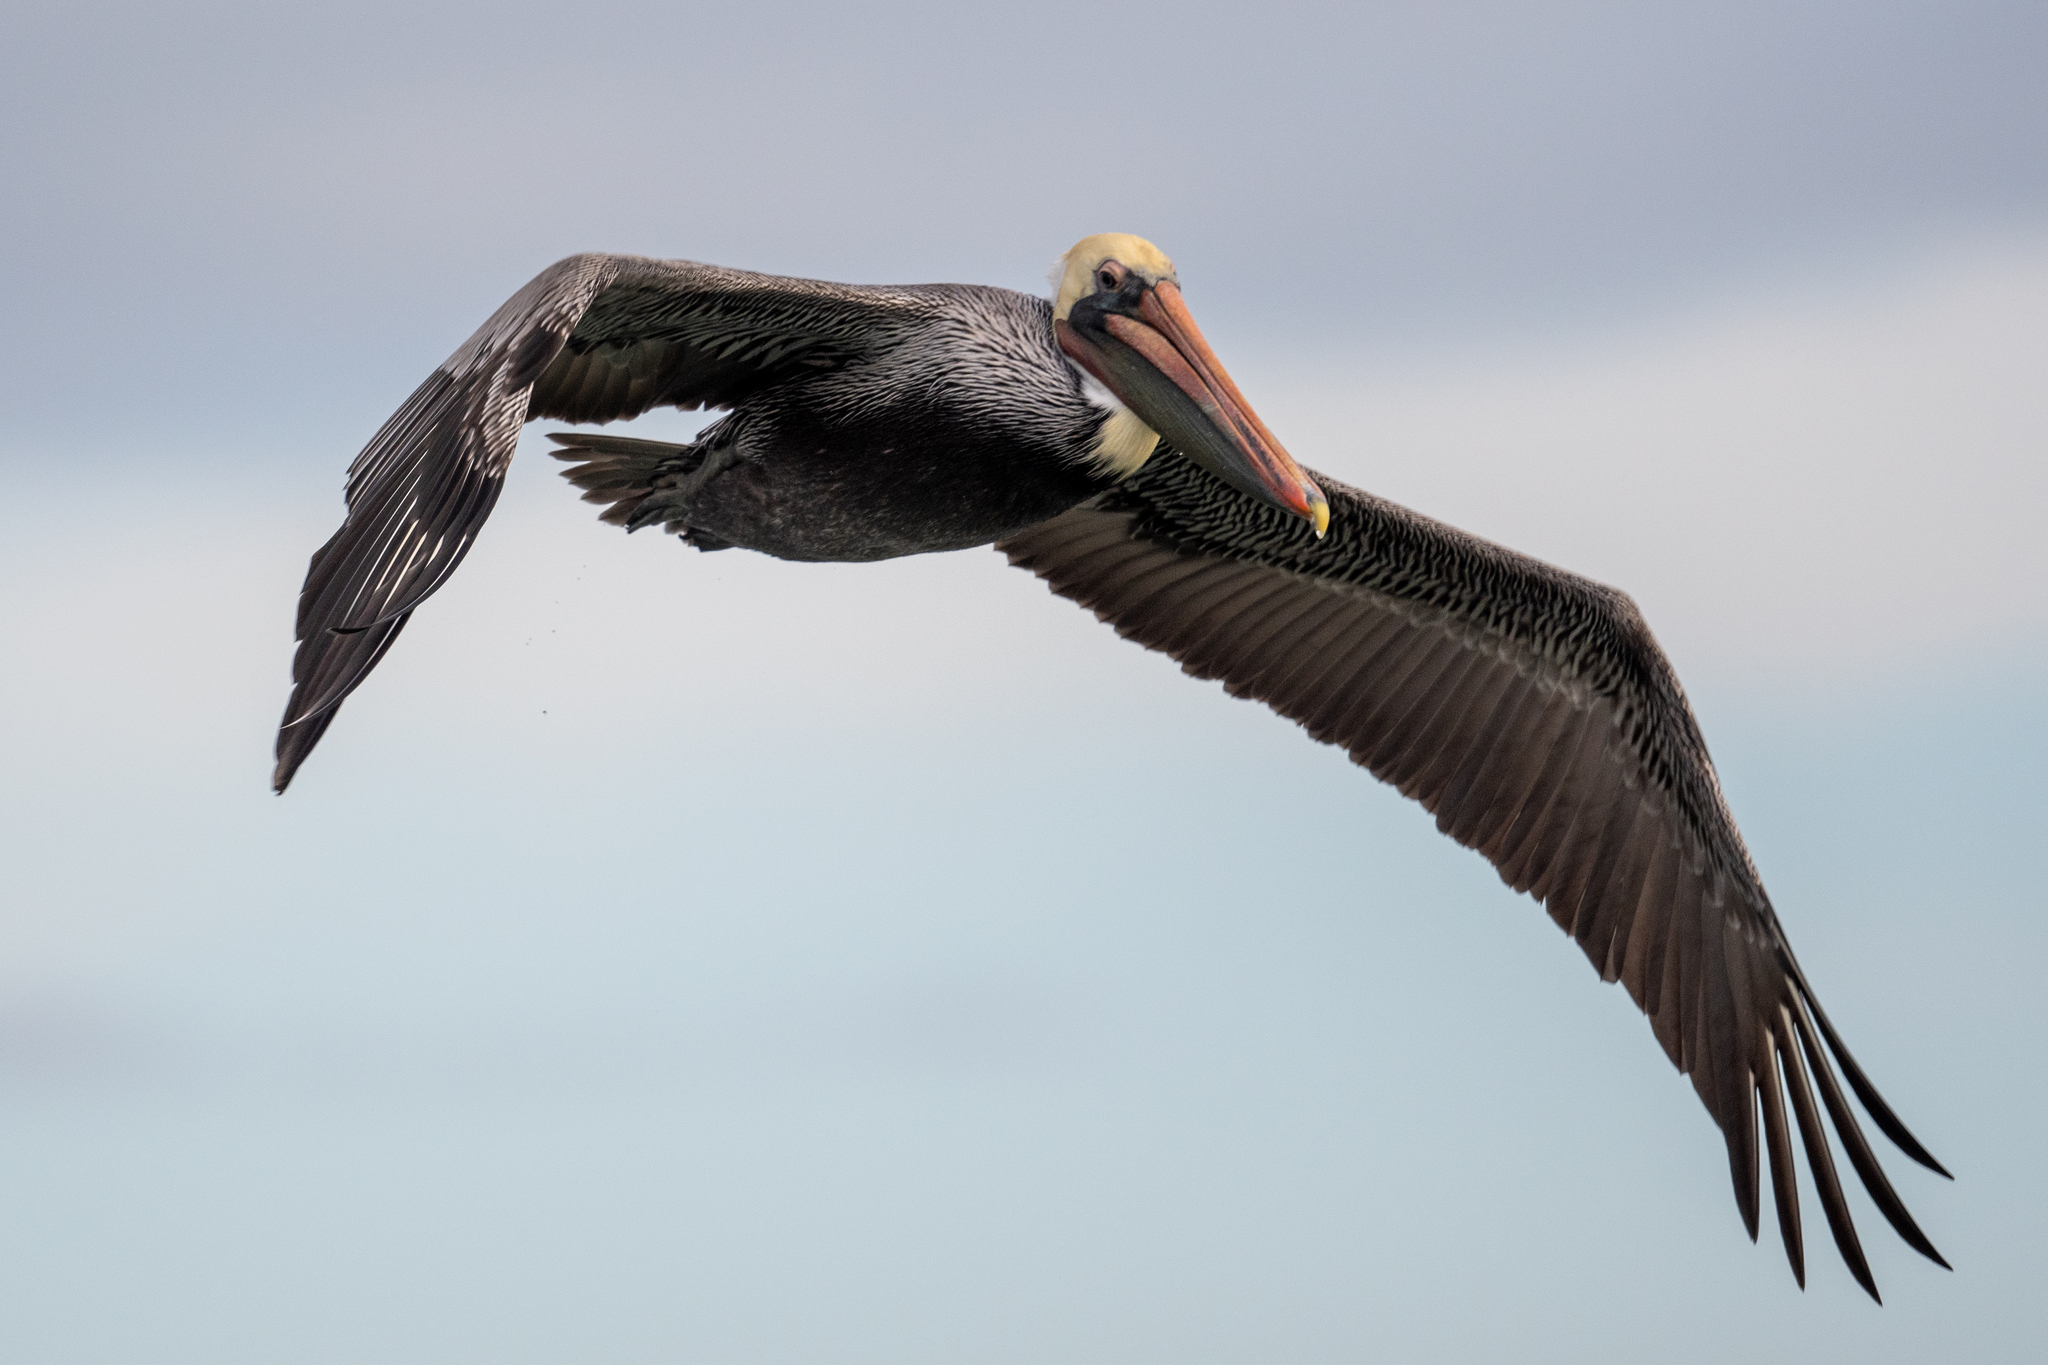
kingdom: Animalia
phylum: Chordata
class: Aves
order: Pelecaniformes
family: Pelecanidae
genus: Pelecanus
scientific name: Pelecanus occidentalis
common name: Brown pelican
